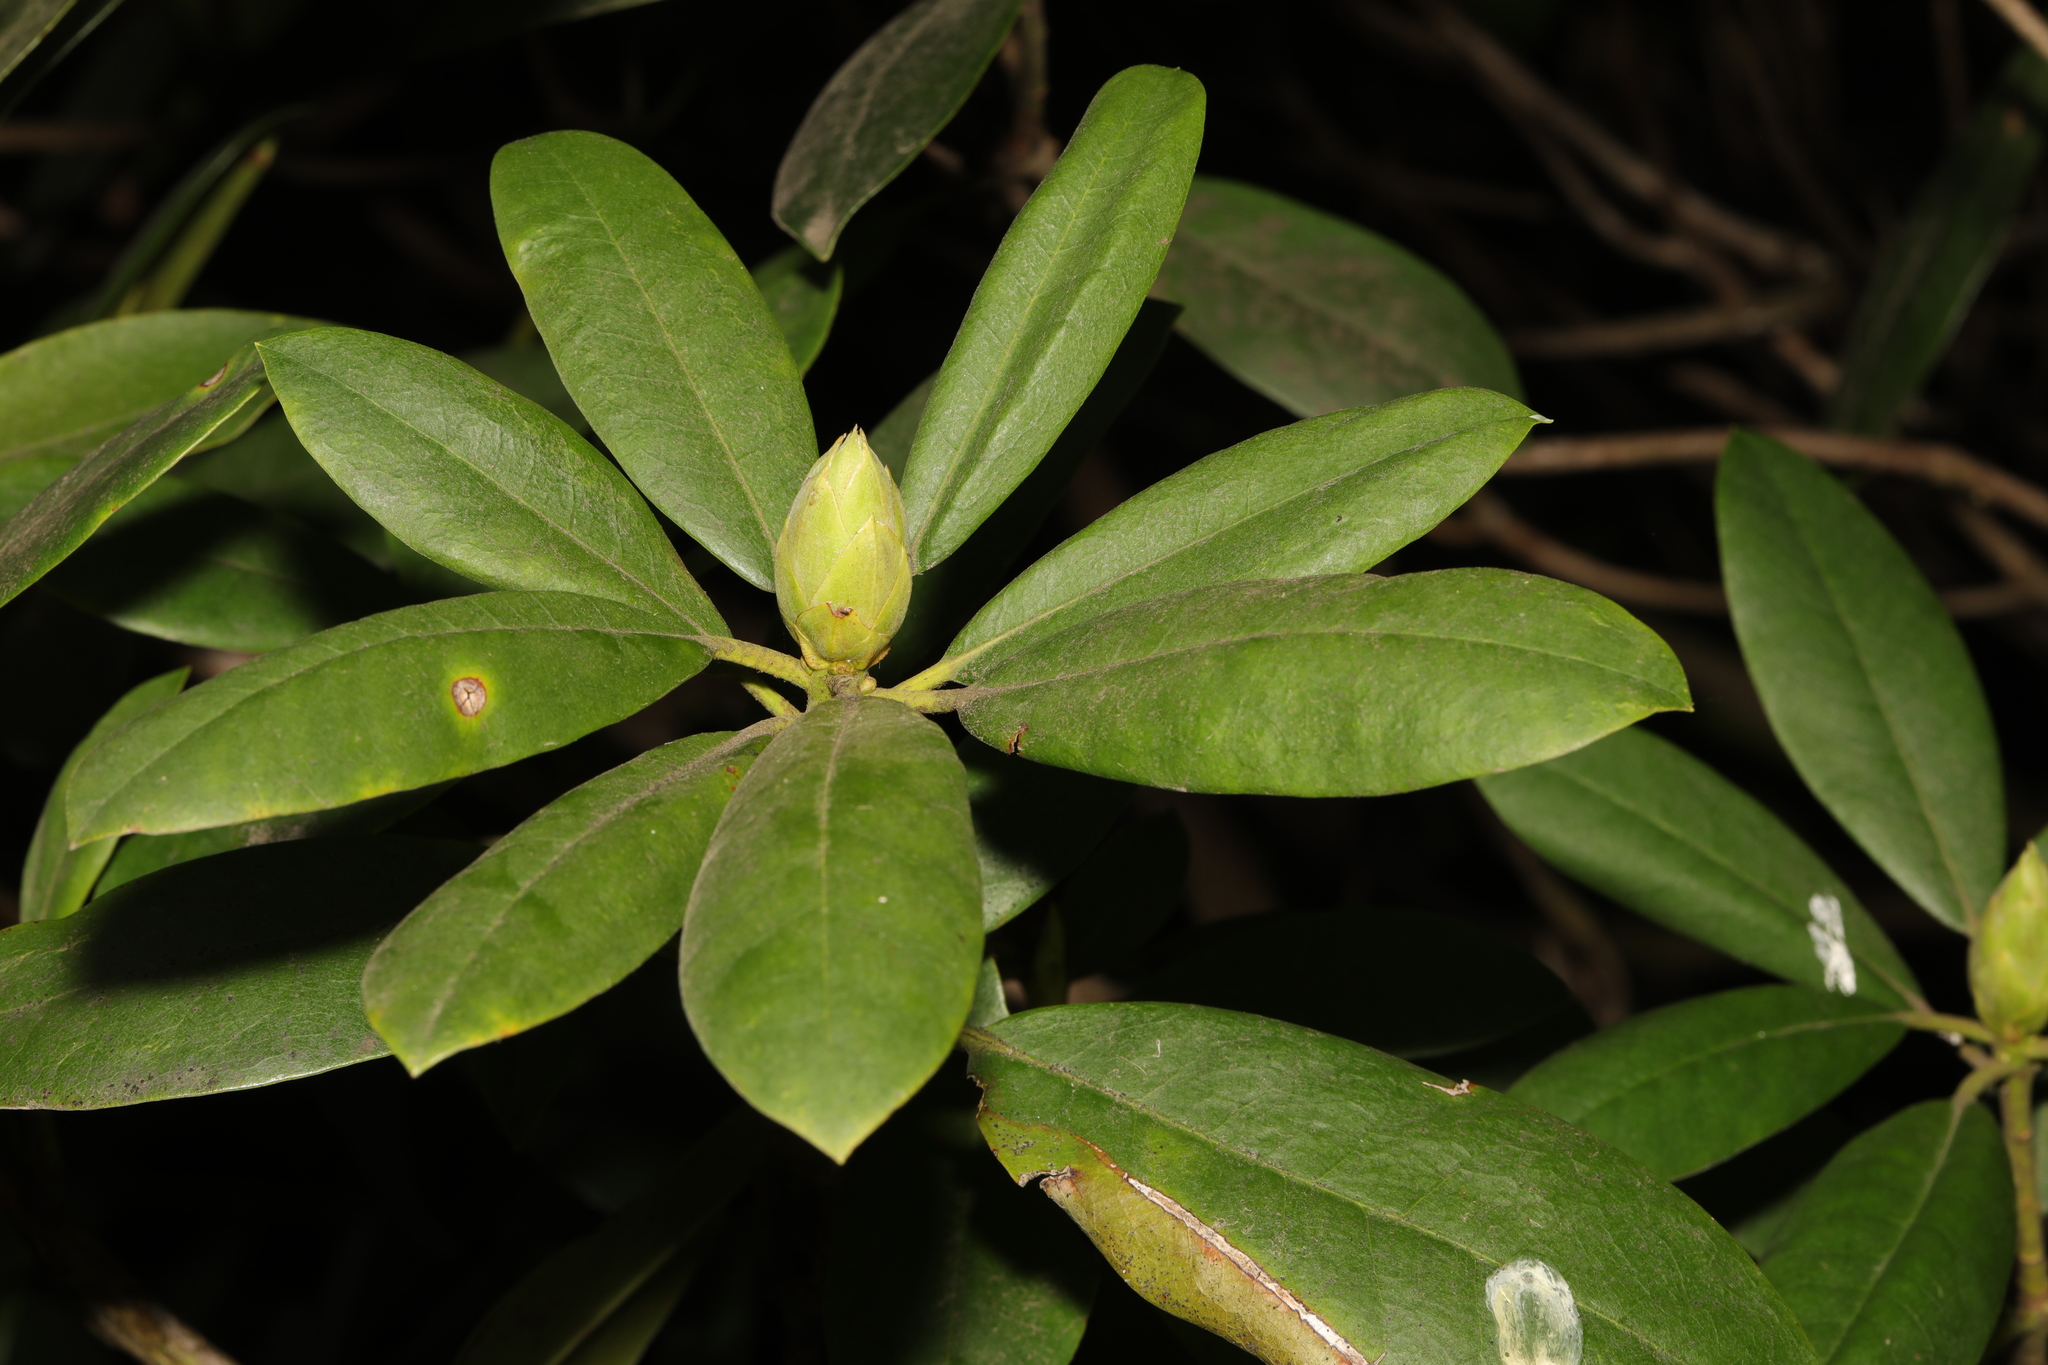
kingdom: Plantae
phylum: Tracheophyta
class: Magnoliopsida
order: Ericales
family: Ericaceae
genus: Rhododendron
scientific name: Rhododendron ponticum
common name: Rhododendron
